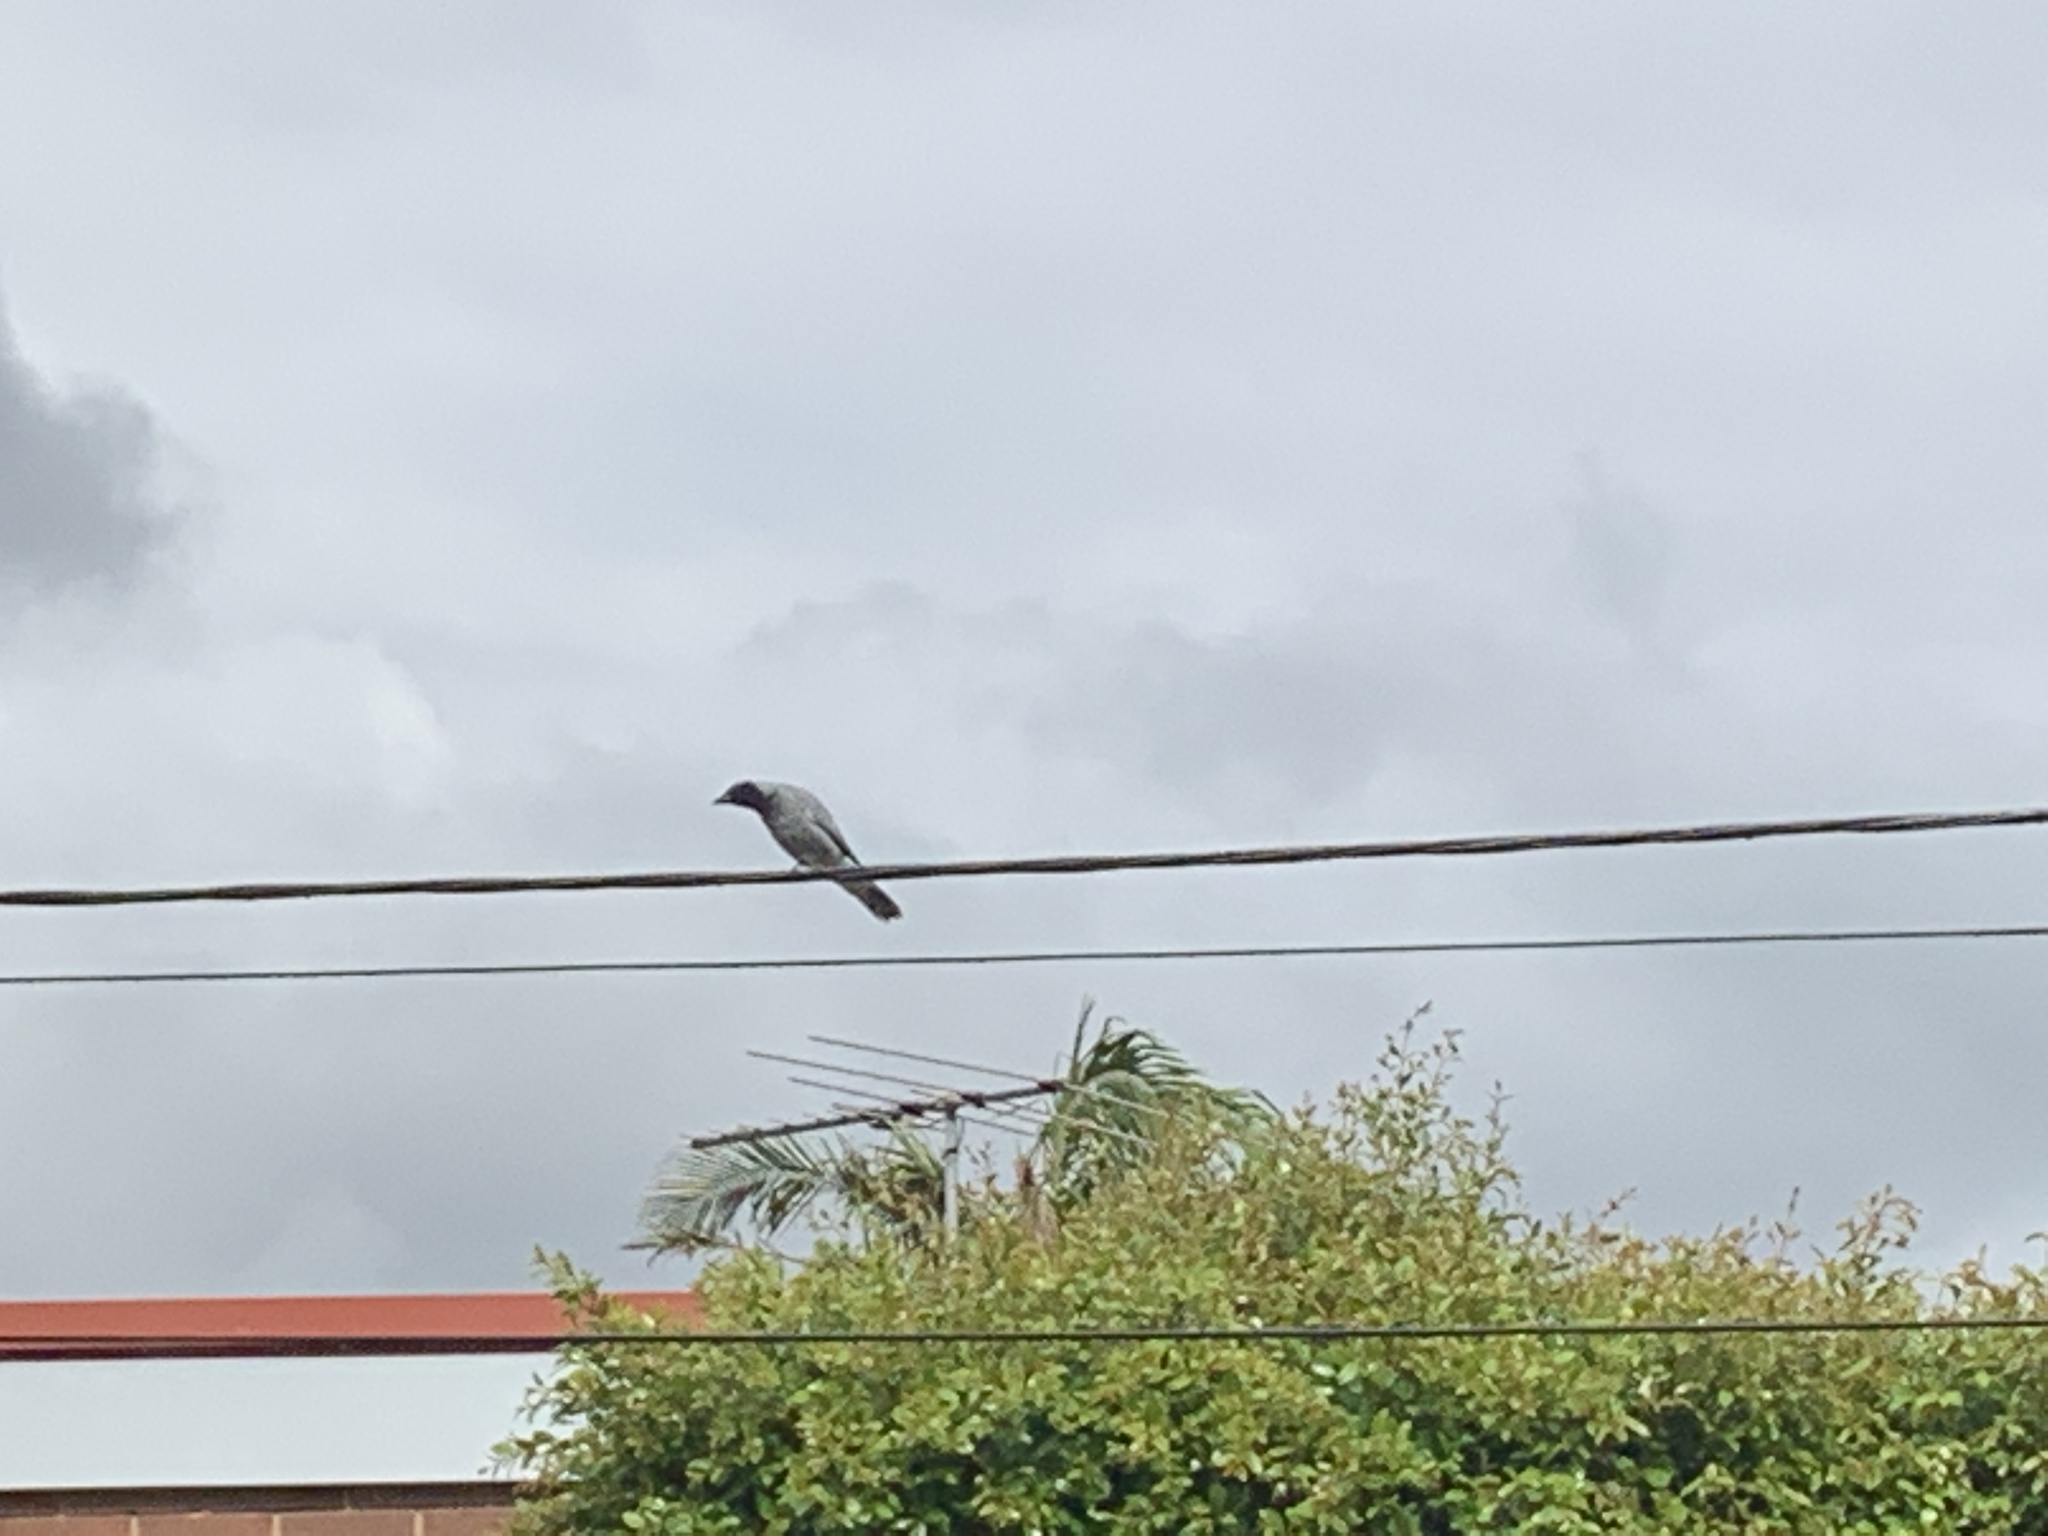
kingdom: Animalia
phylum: Chordata
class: Aves
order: Passeriformes
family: Campephagidae
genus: Coracina
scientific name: Coracina novaehollandiae
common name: Black-faced cuckooshrike
